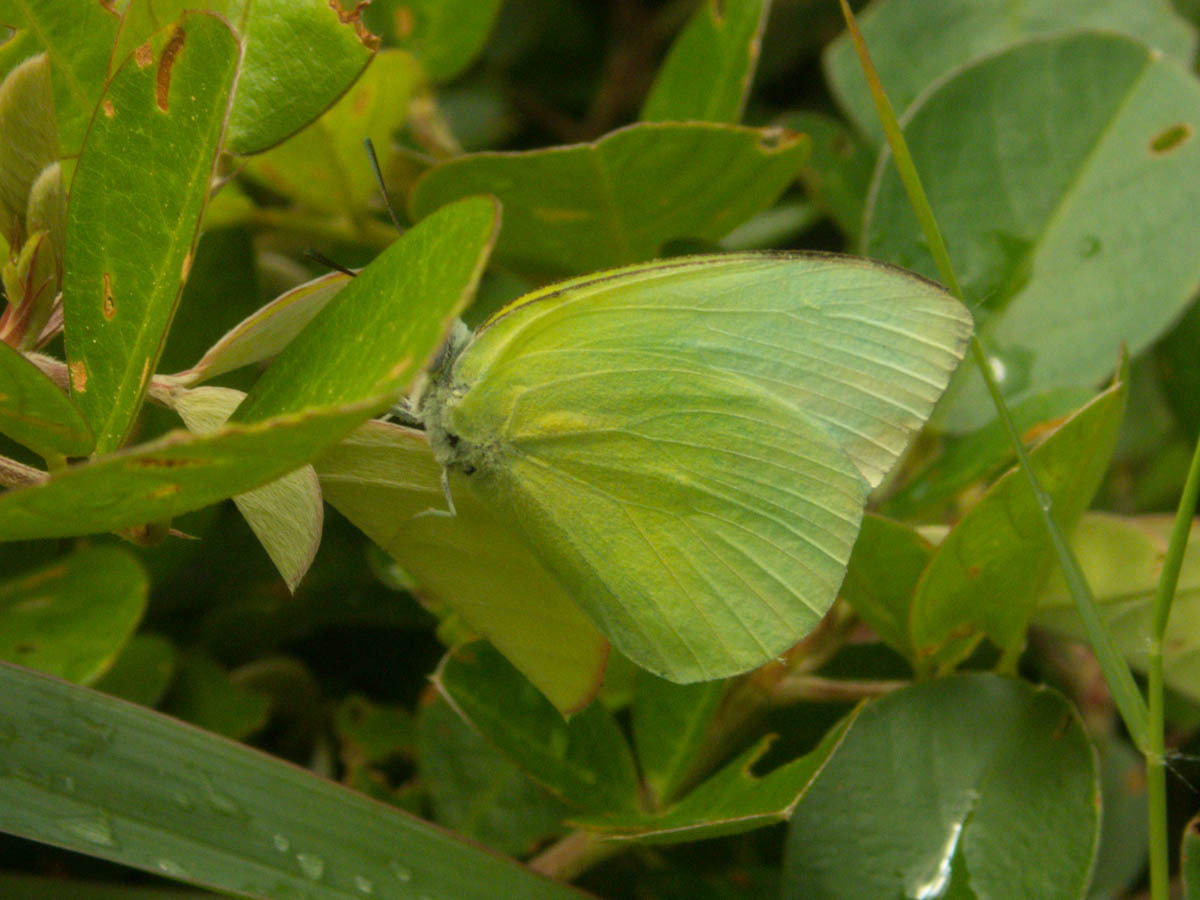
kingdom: Animalia
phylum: Arthropoda
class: Insecta
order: Lepidoptera
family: Pieridae
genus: Catopsilia
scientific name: Catopsilia pomona
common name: Common emigrant
